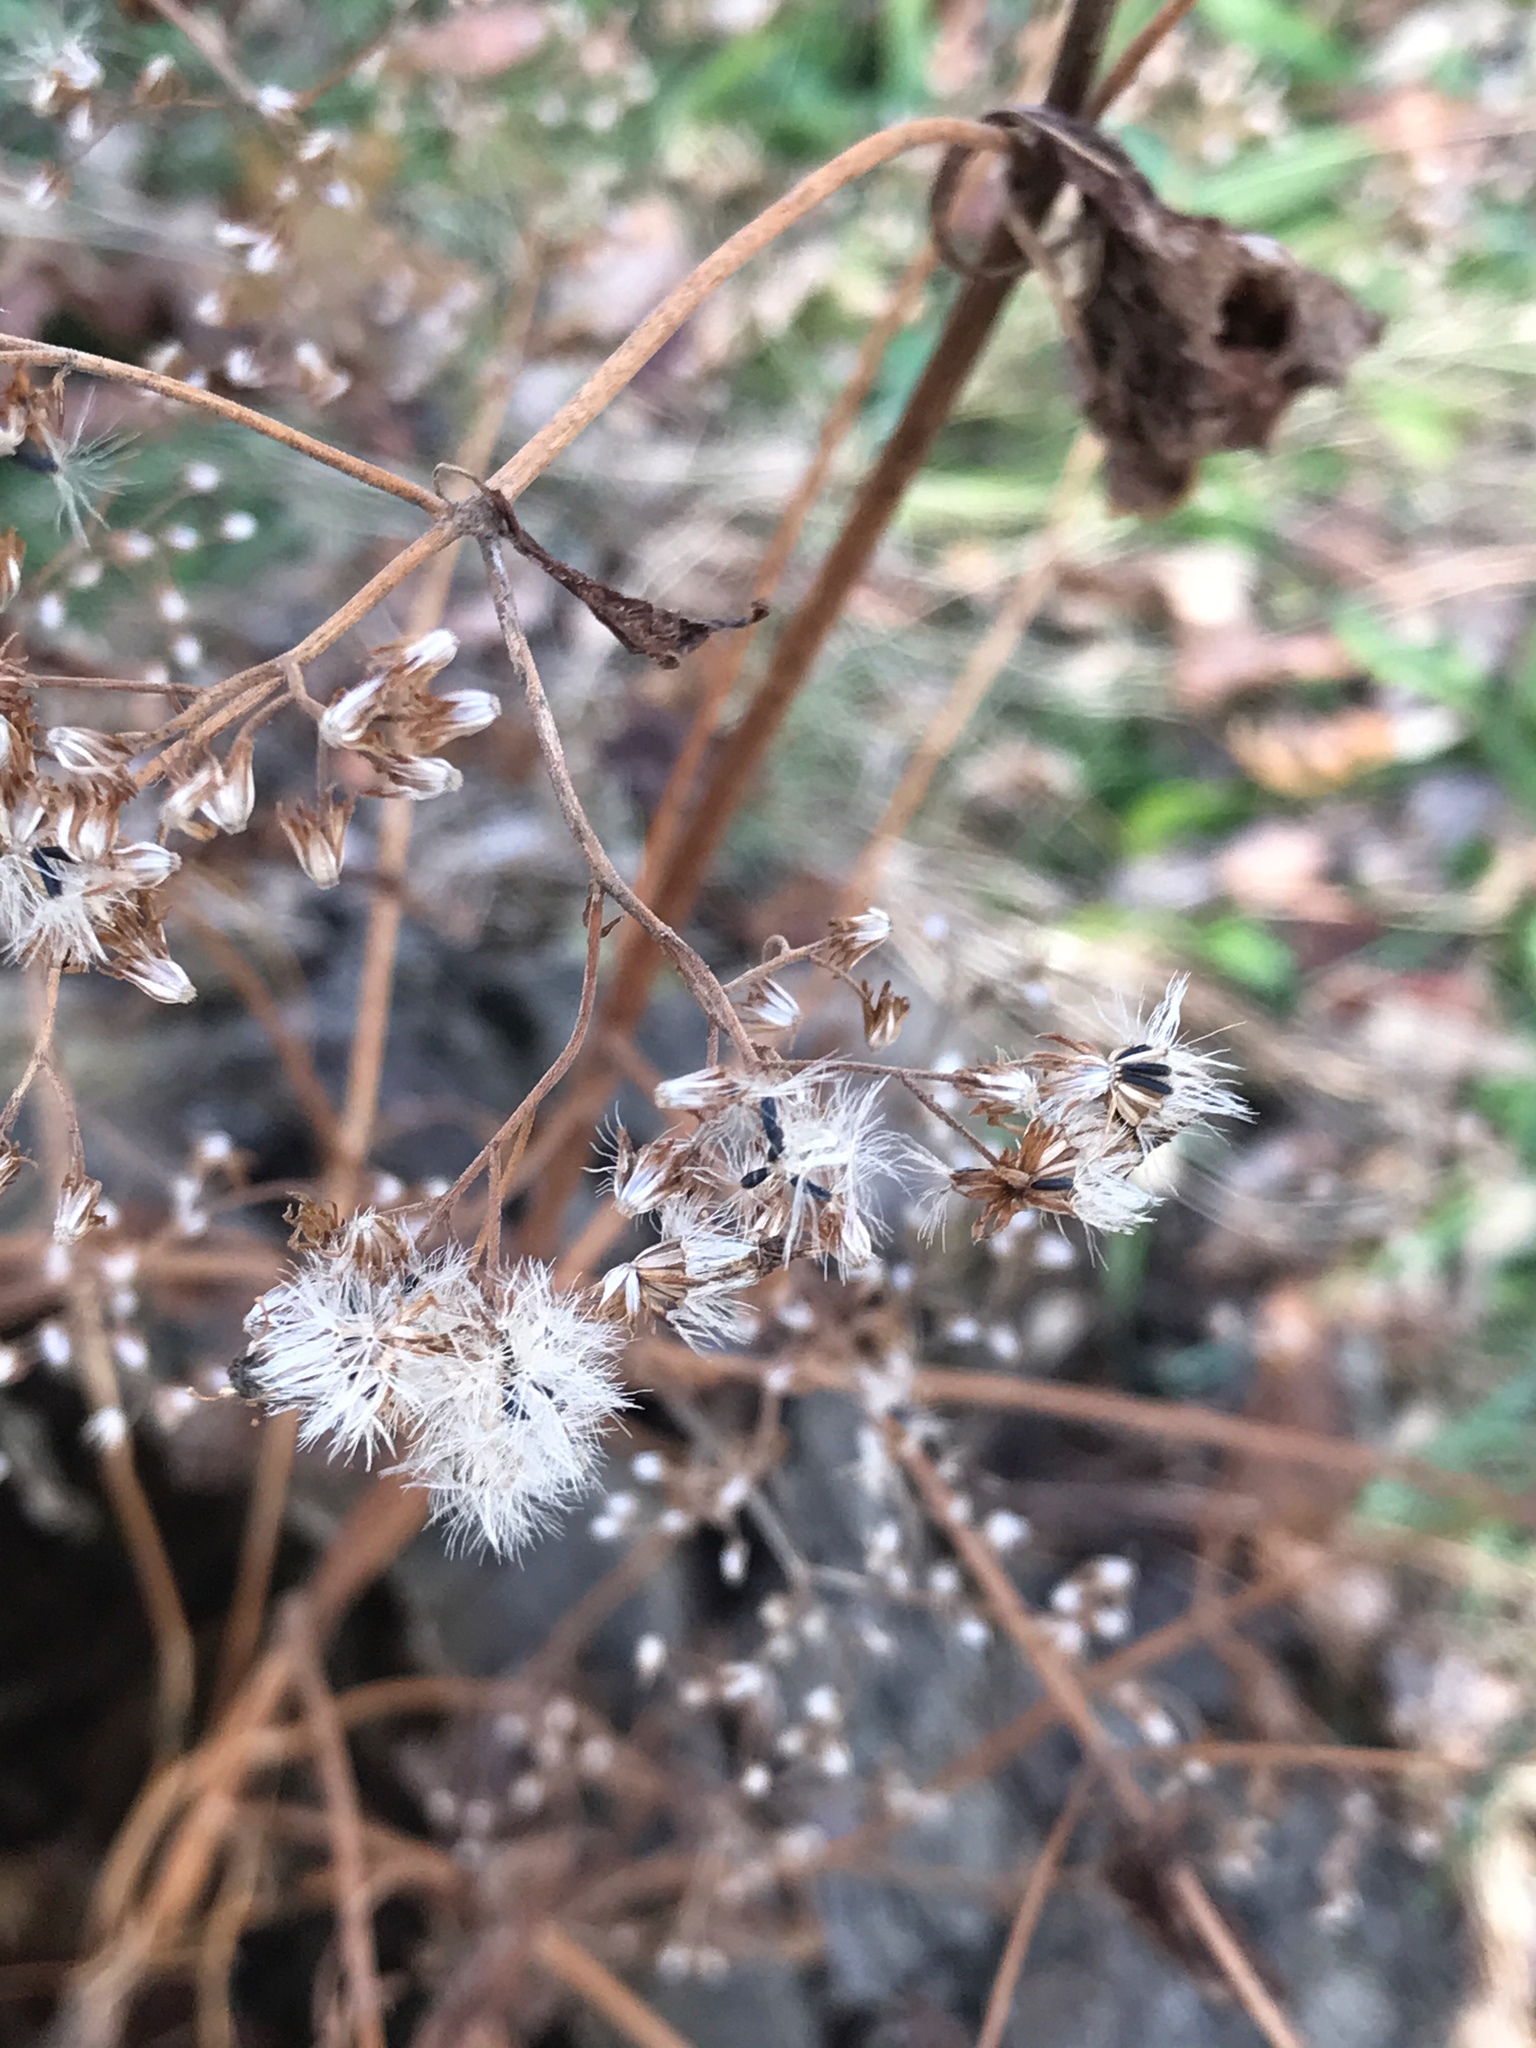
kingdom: Plantae
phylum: Tracheophyta
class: Magnoliopsida
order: Asterales
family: Asteraceae
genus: Ageratina
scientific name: Ageratina altissima
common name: White snakeroot
